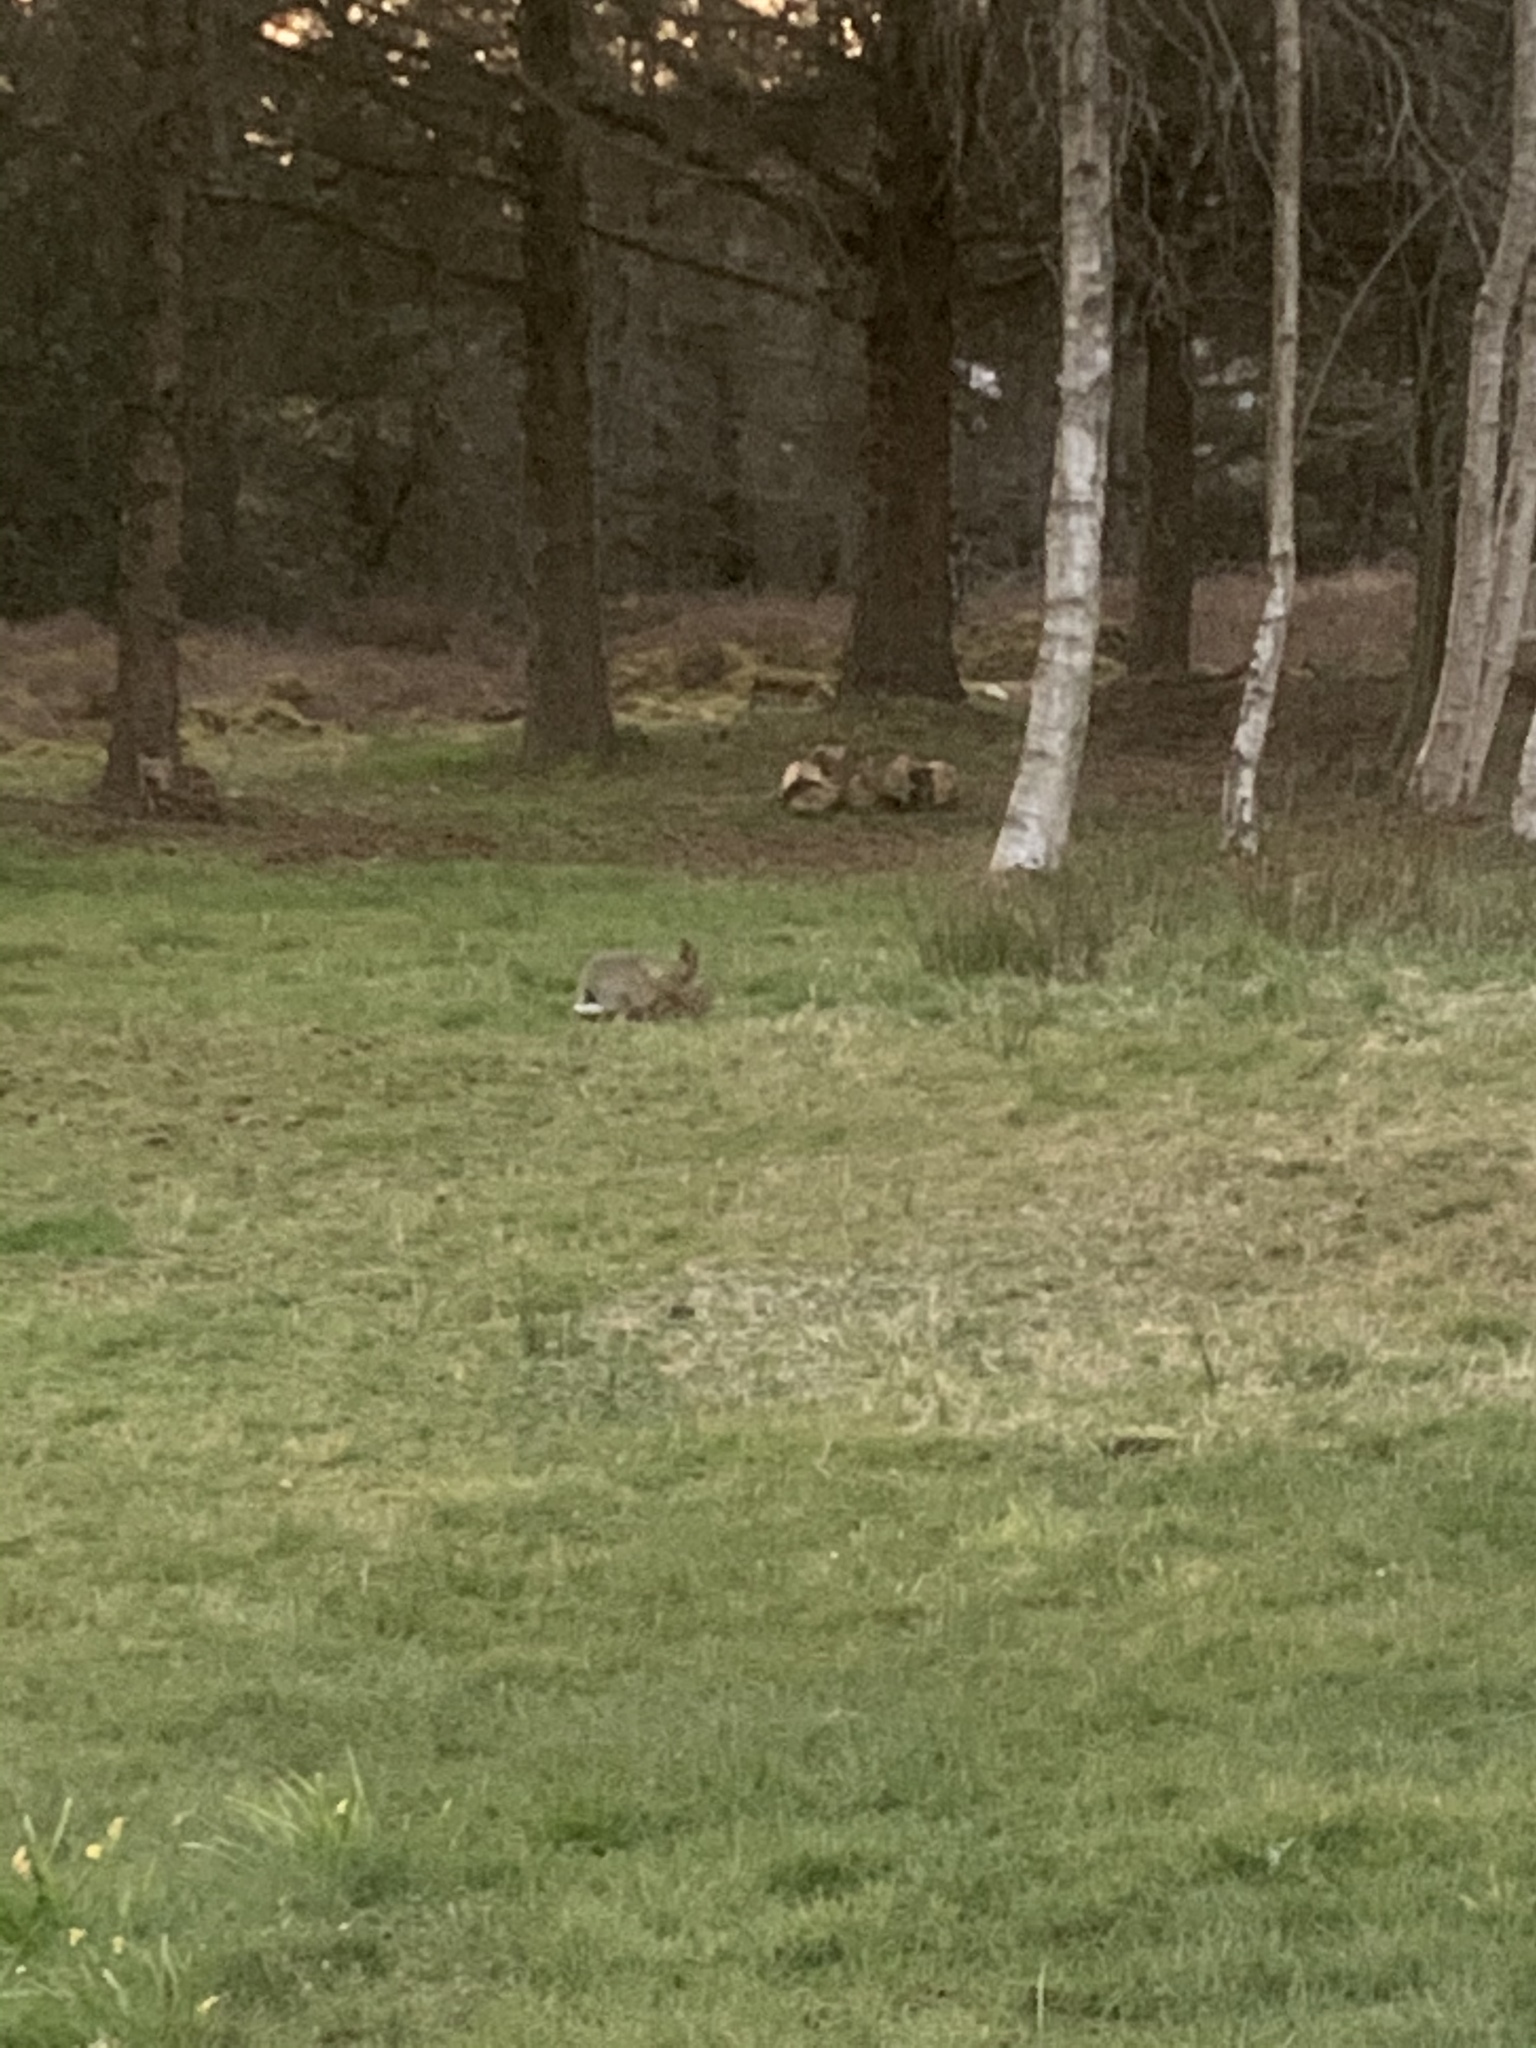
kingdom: Animalia
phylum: Chordata
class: Mammalia
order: Lagomorpha
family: Leporidae
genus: Lepus
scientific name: Lepus europaeus
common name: European hare
